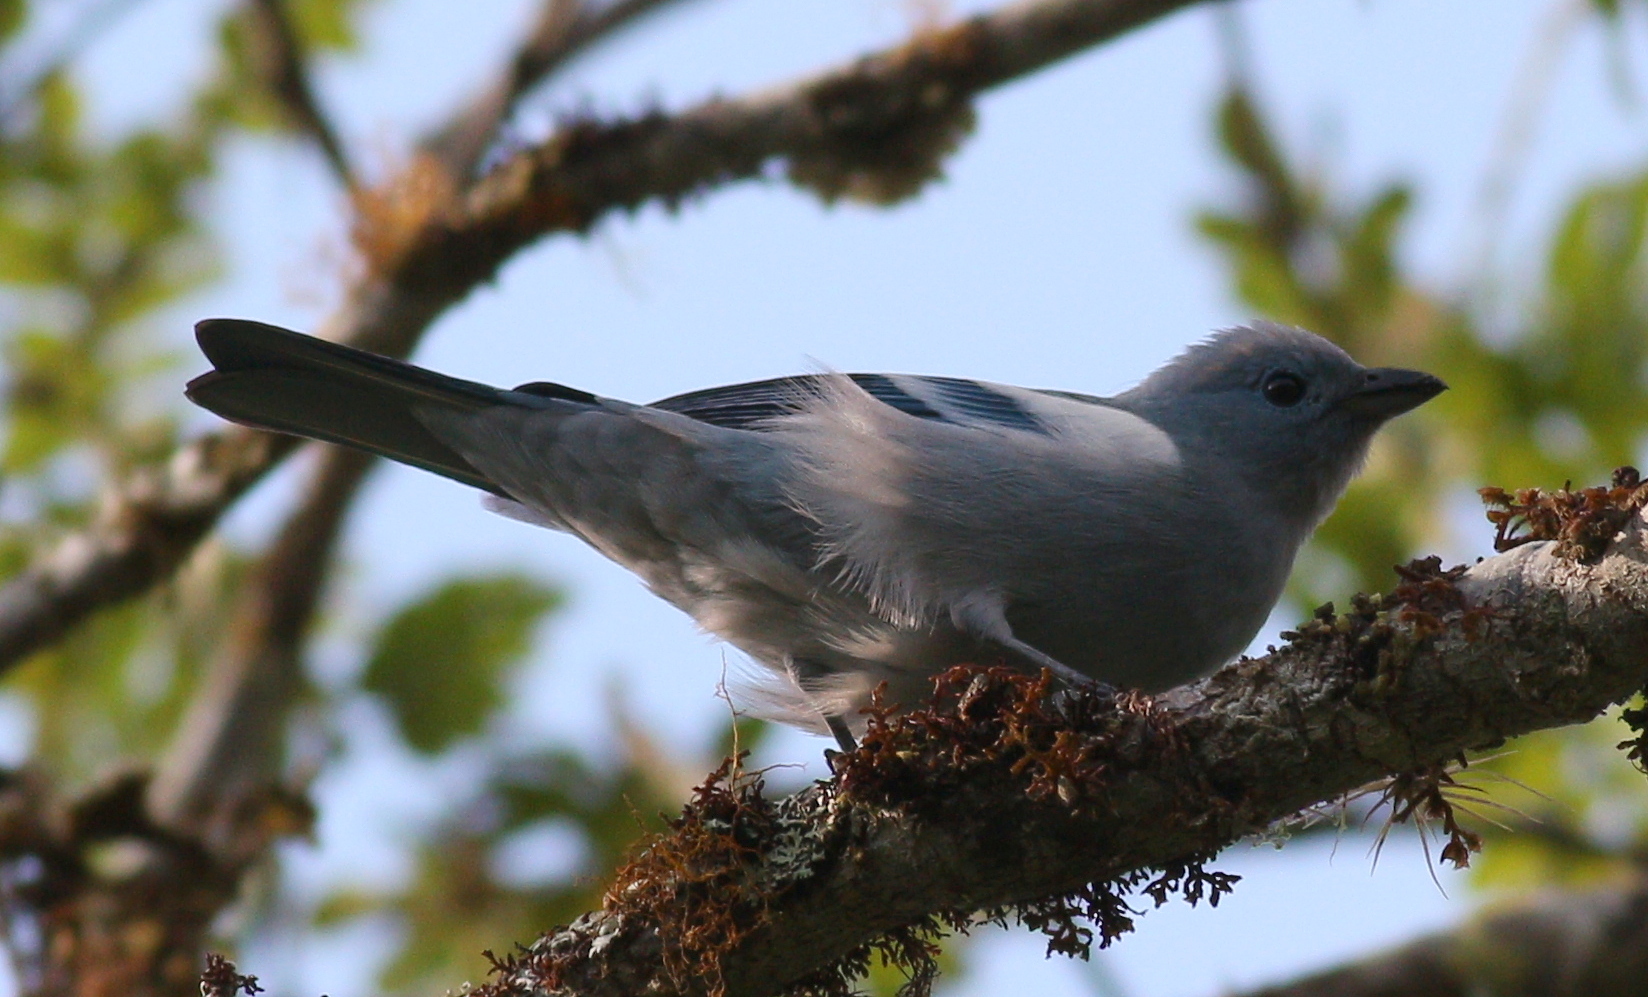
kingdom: Animalia
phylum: Chordata
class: Aves
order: Passeriformes
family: Thraupidae
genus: Thraupis
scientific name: Thraupis episcopus
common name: Blue-grey tanager
